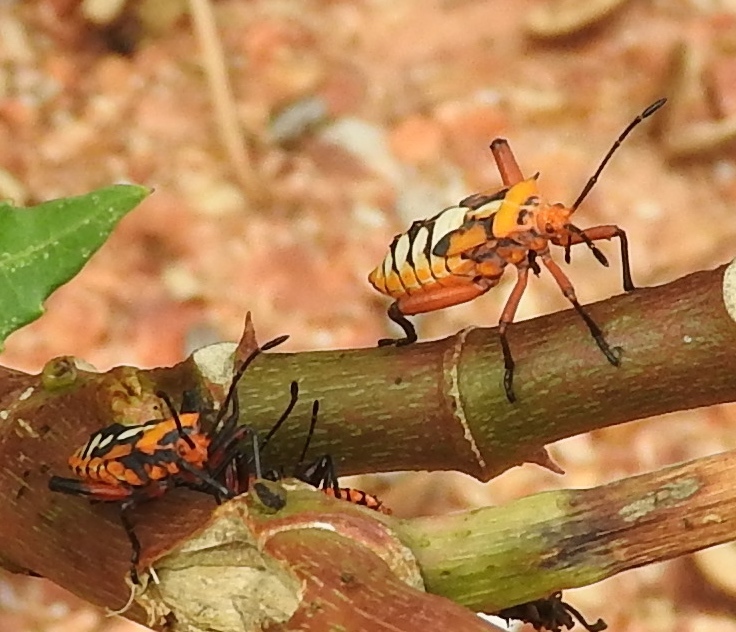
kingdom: Animalia
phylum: Arthropoda
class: Insecta
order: Hemiptera
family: Coreidae
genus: Sagotylus
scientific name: Sagotylus confluens
